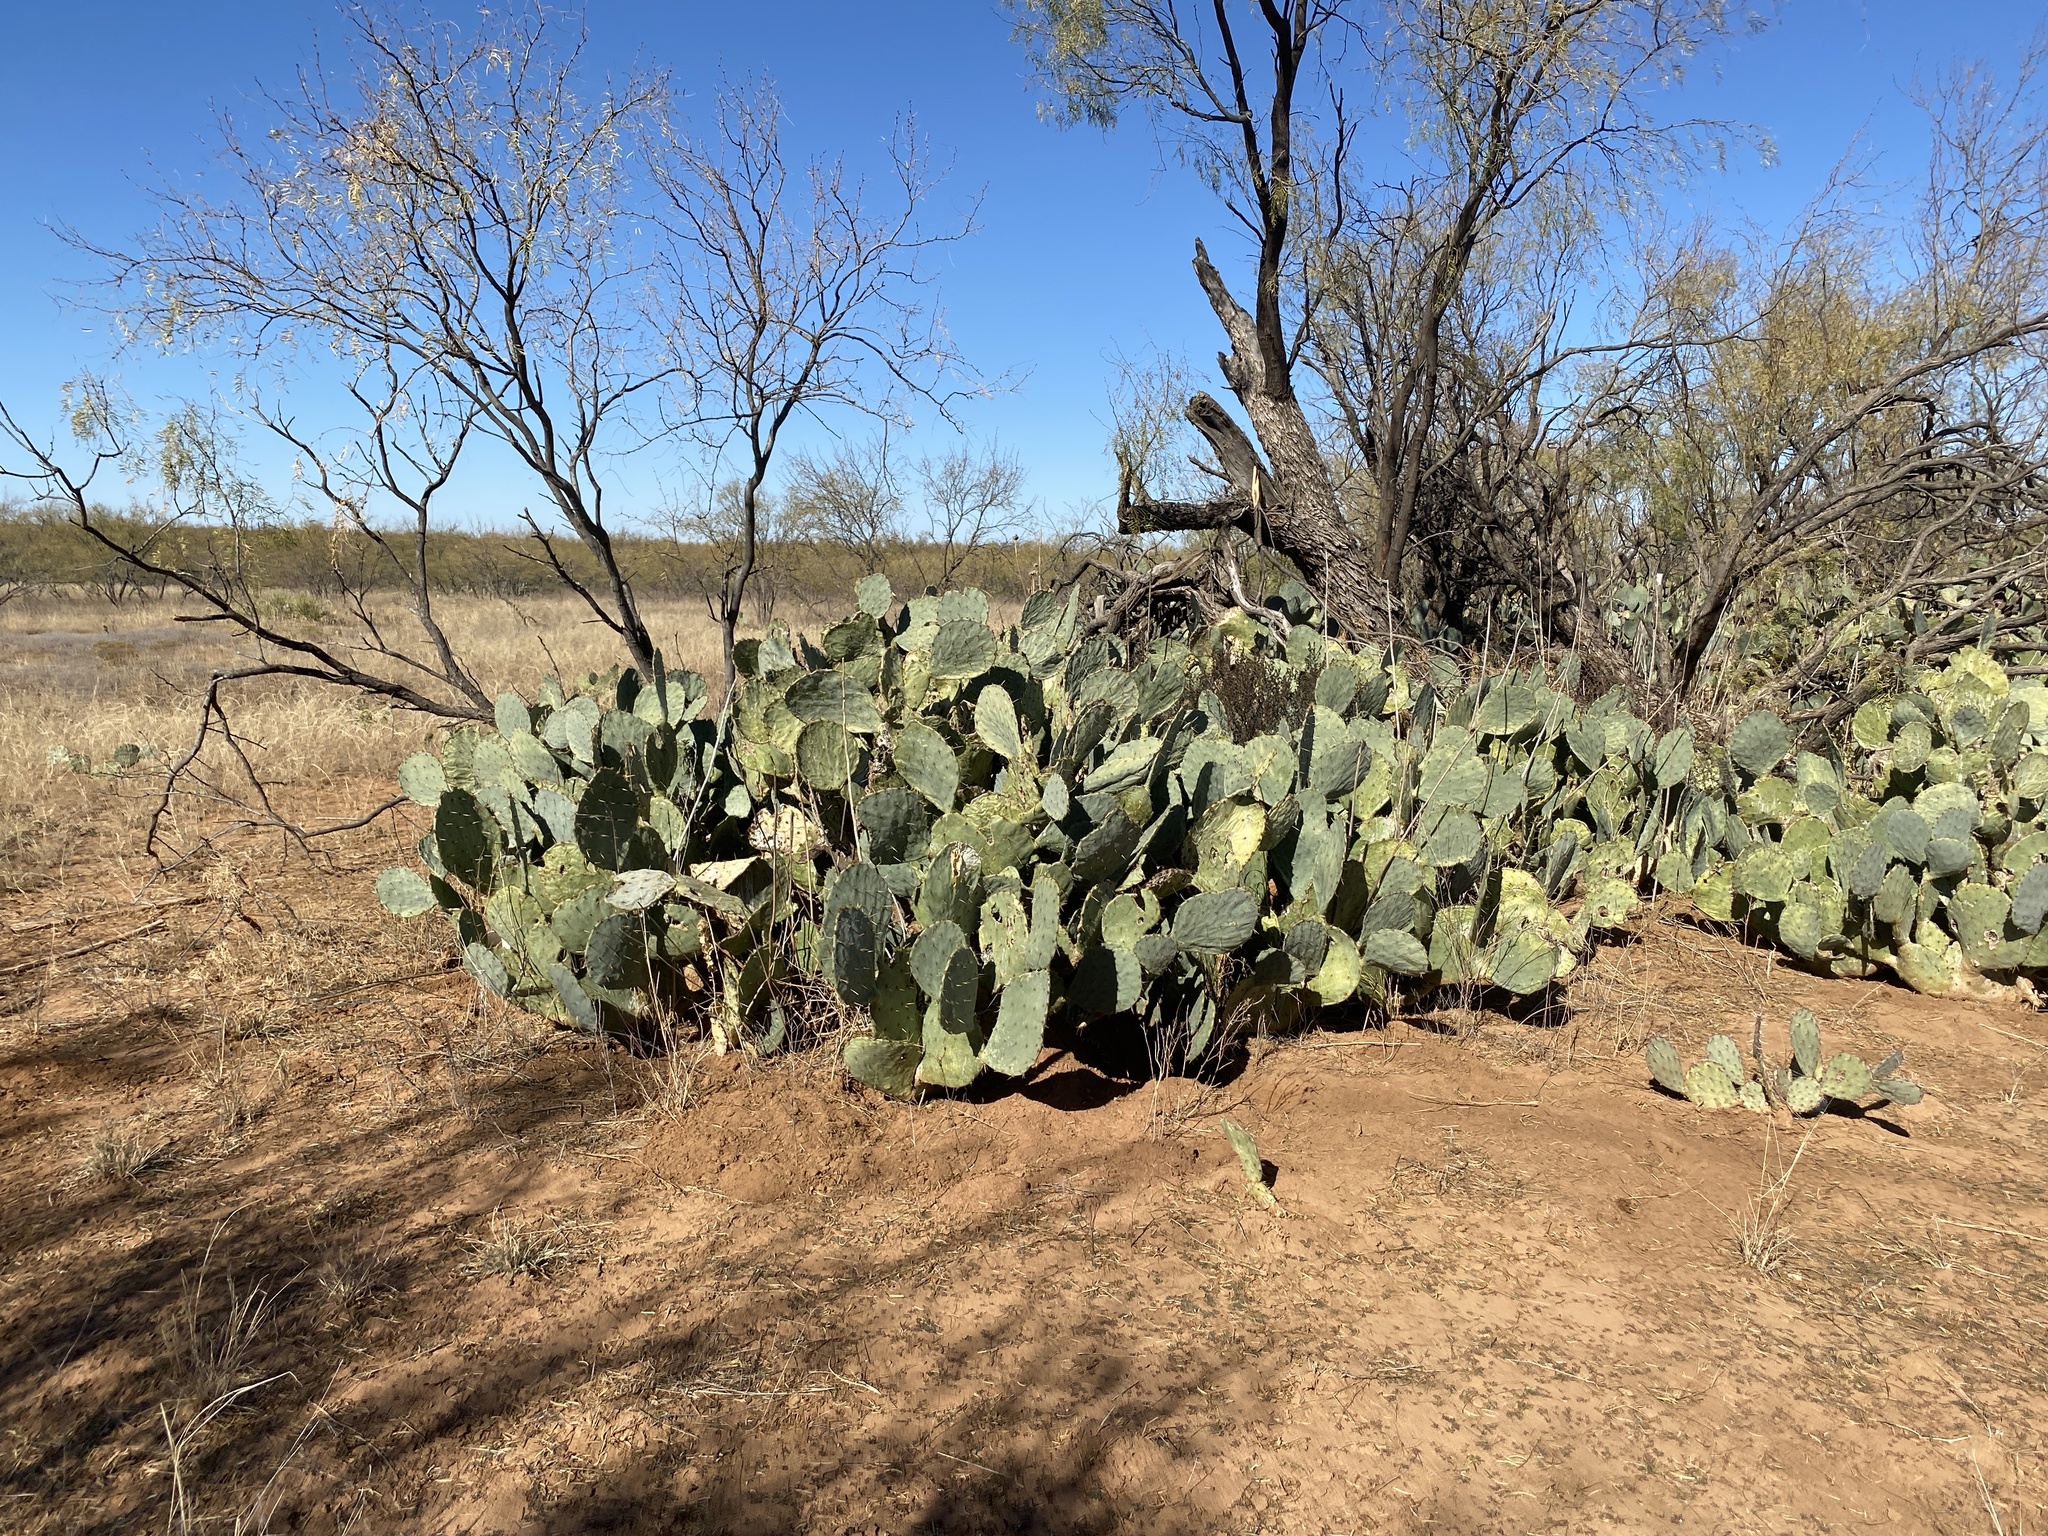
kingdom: Plantae
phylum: Tracheophyta
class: Magnoliopsida
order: Caryophyllales
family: Cactaceae
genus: Opuntia
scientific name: Opuntia engelmannii
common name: Cactus-apple
